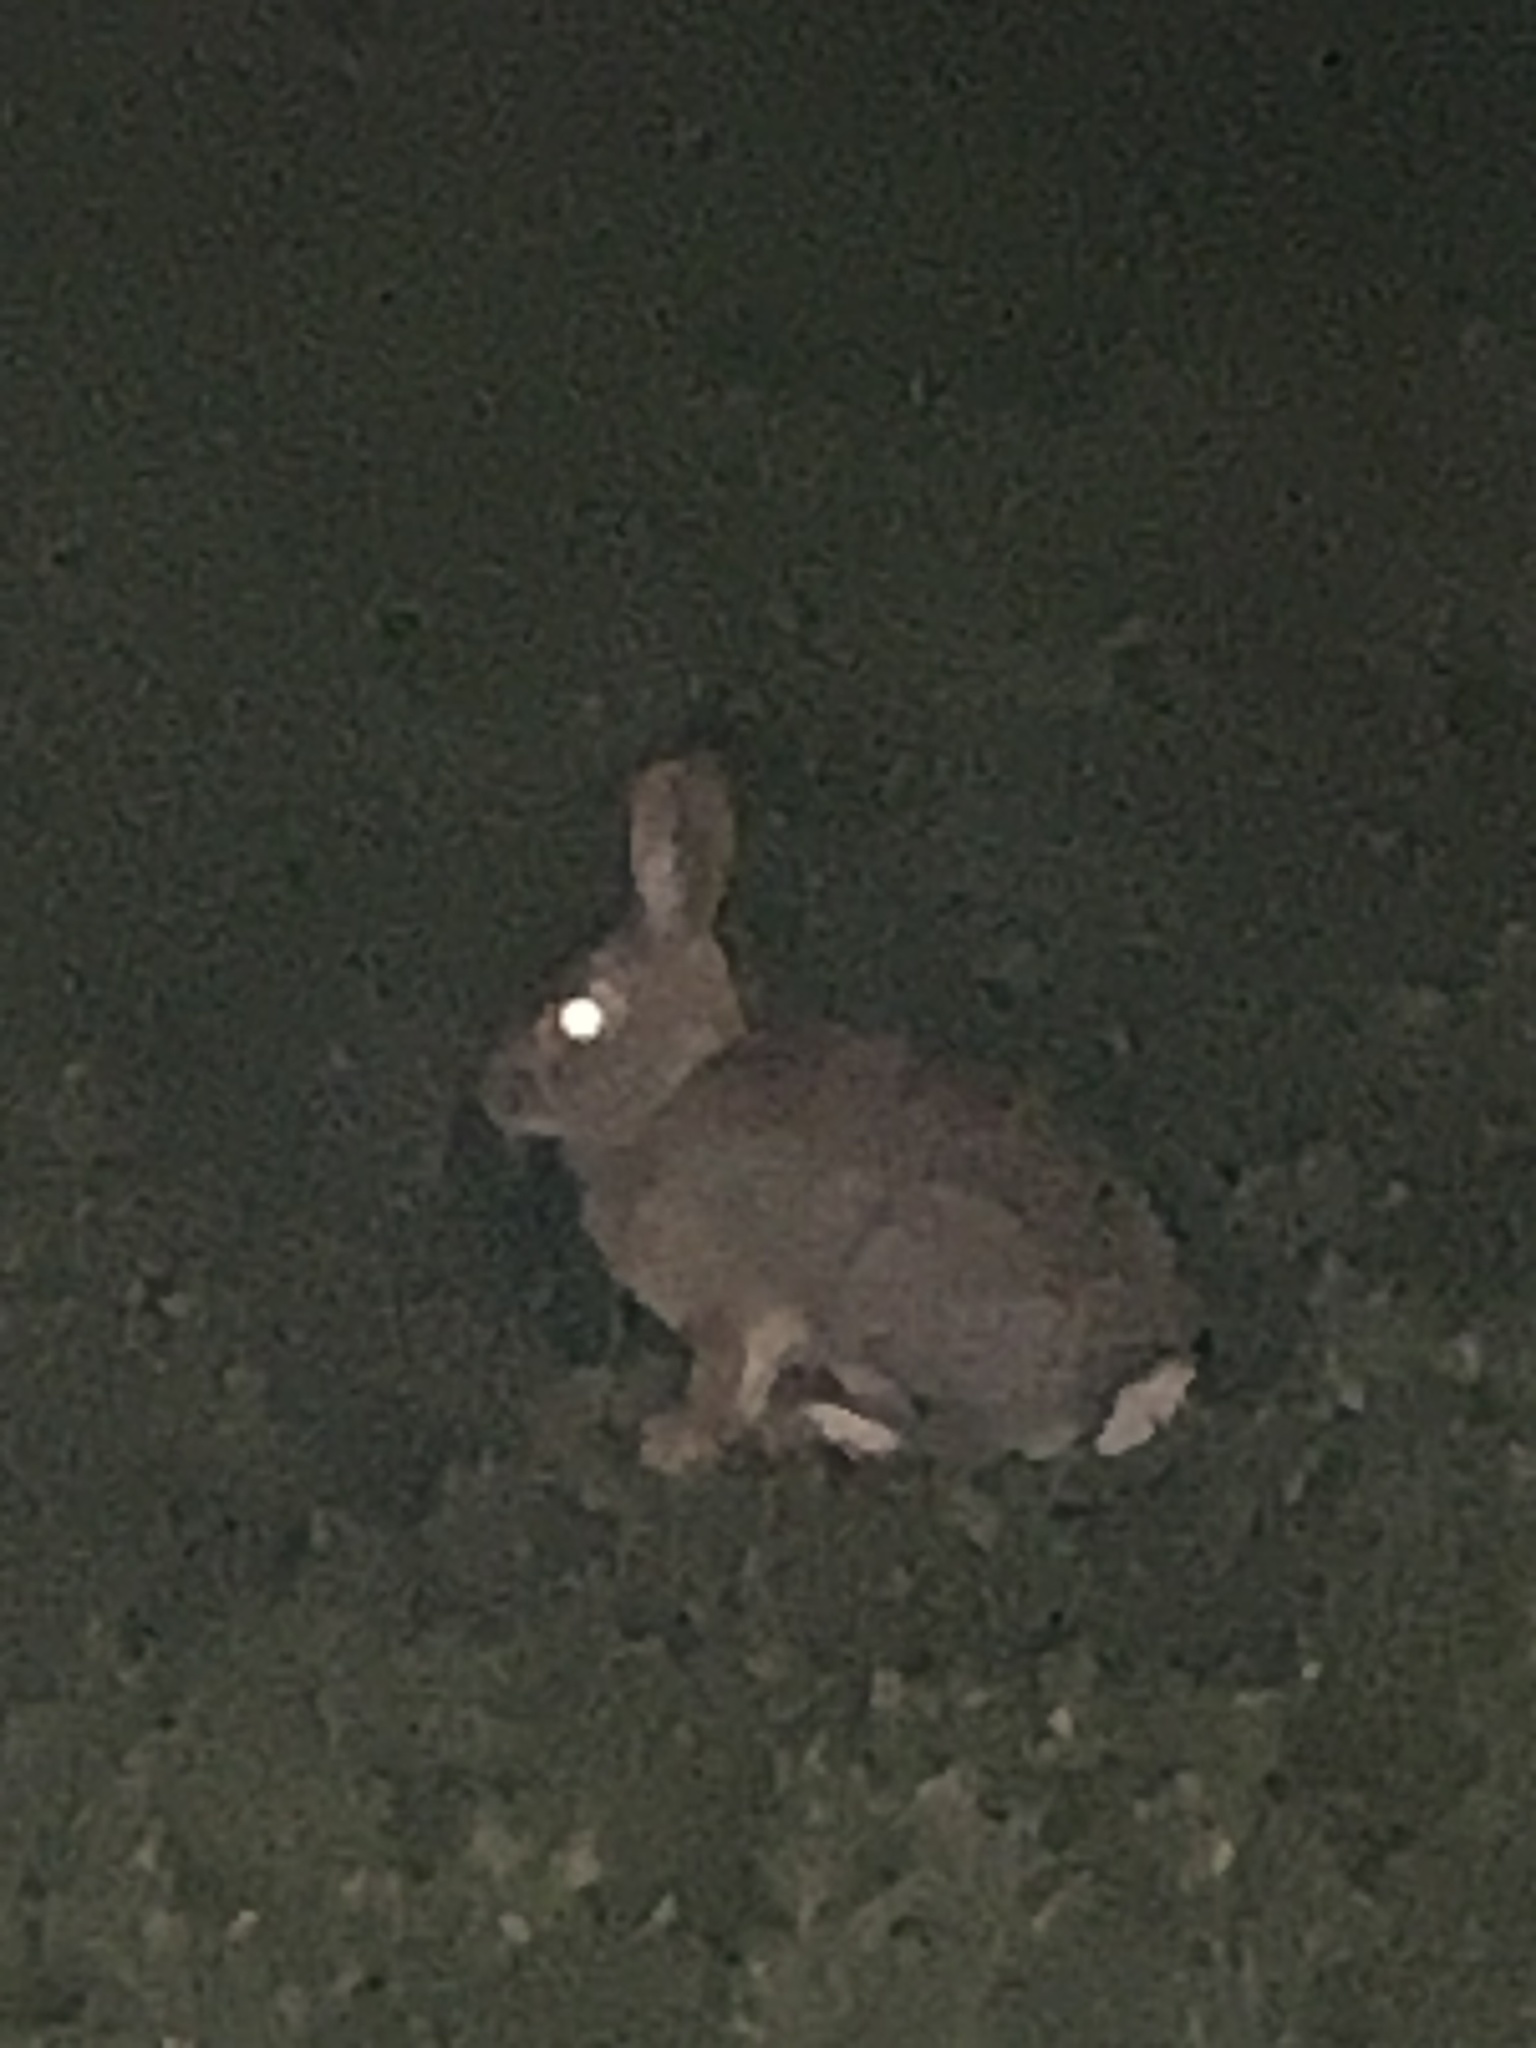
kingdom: Animalia
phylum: Chordata
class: Mammalia
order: Lagomorpha
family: Leporidae
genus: Sylvilagus
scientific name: Sylvilagus audubonii
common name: Desert cottontail
